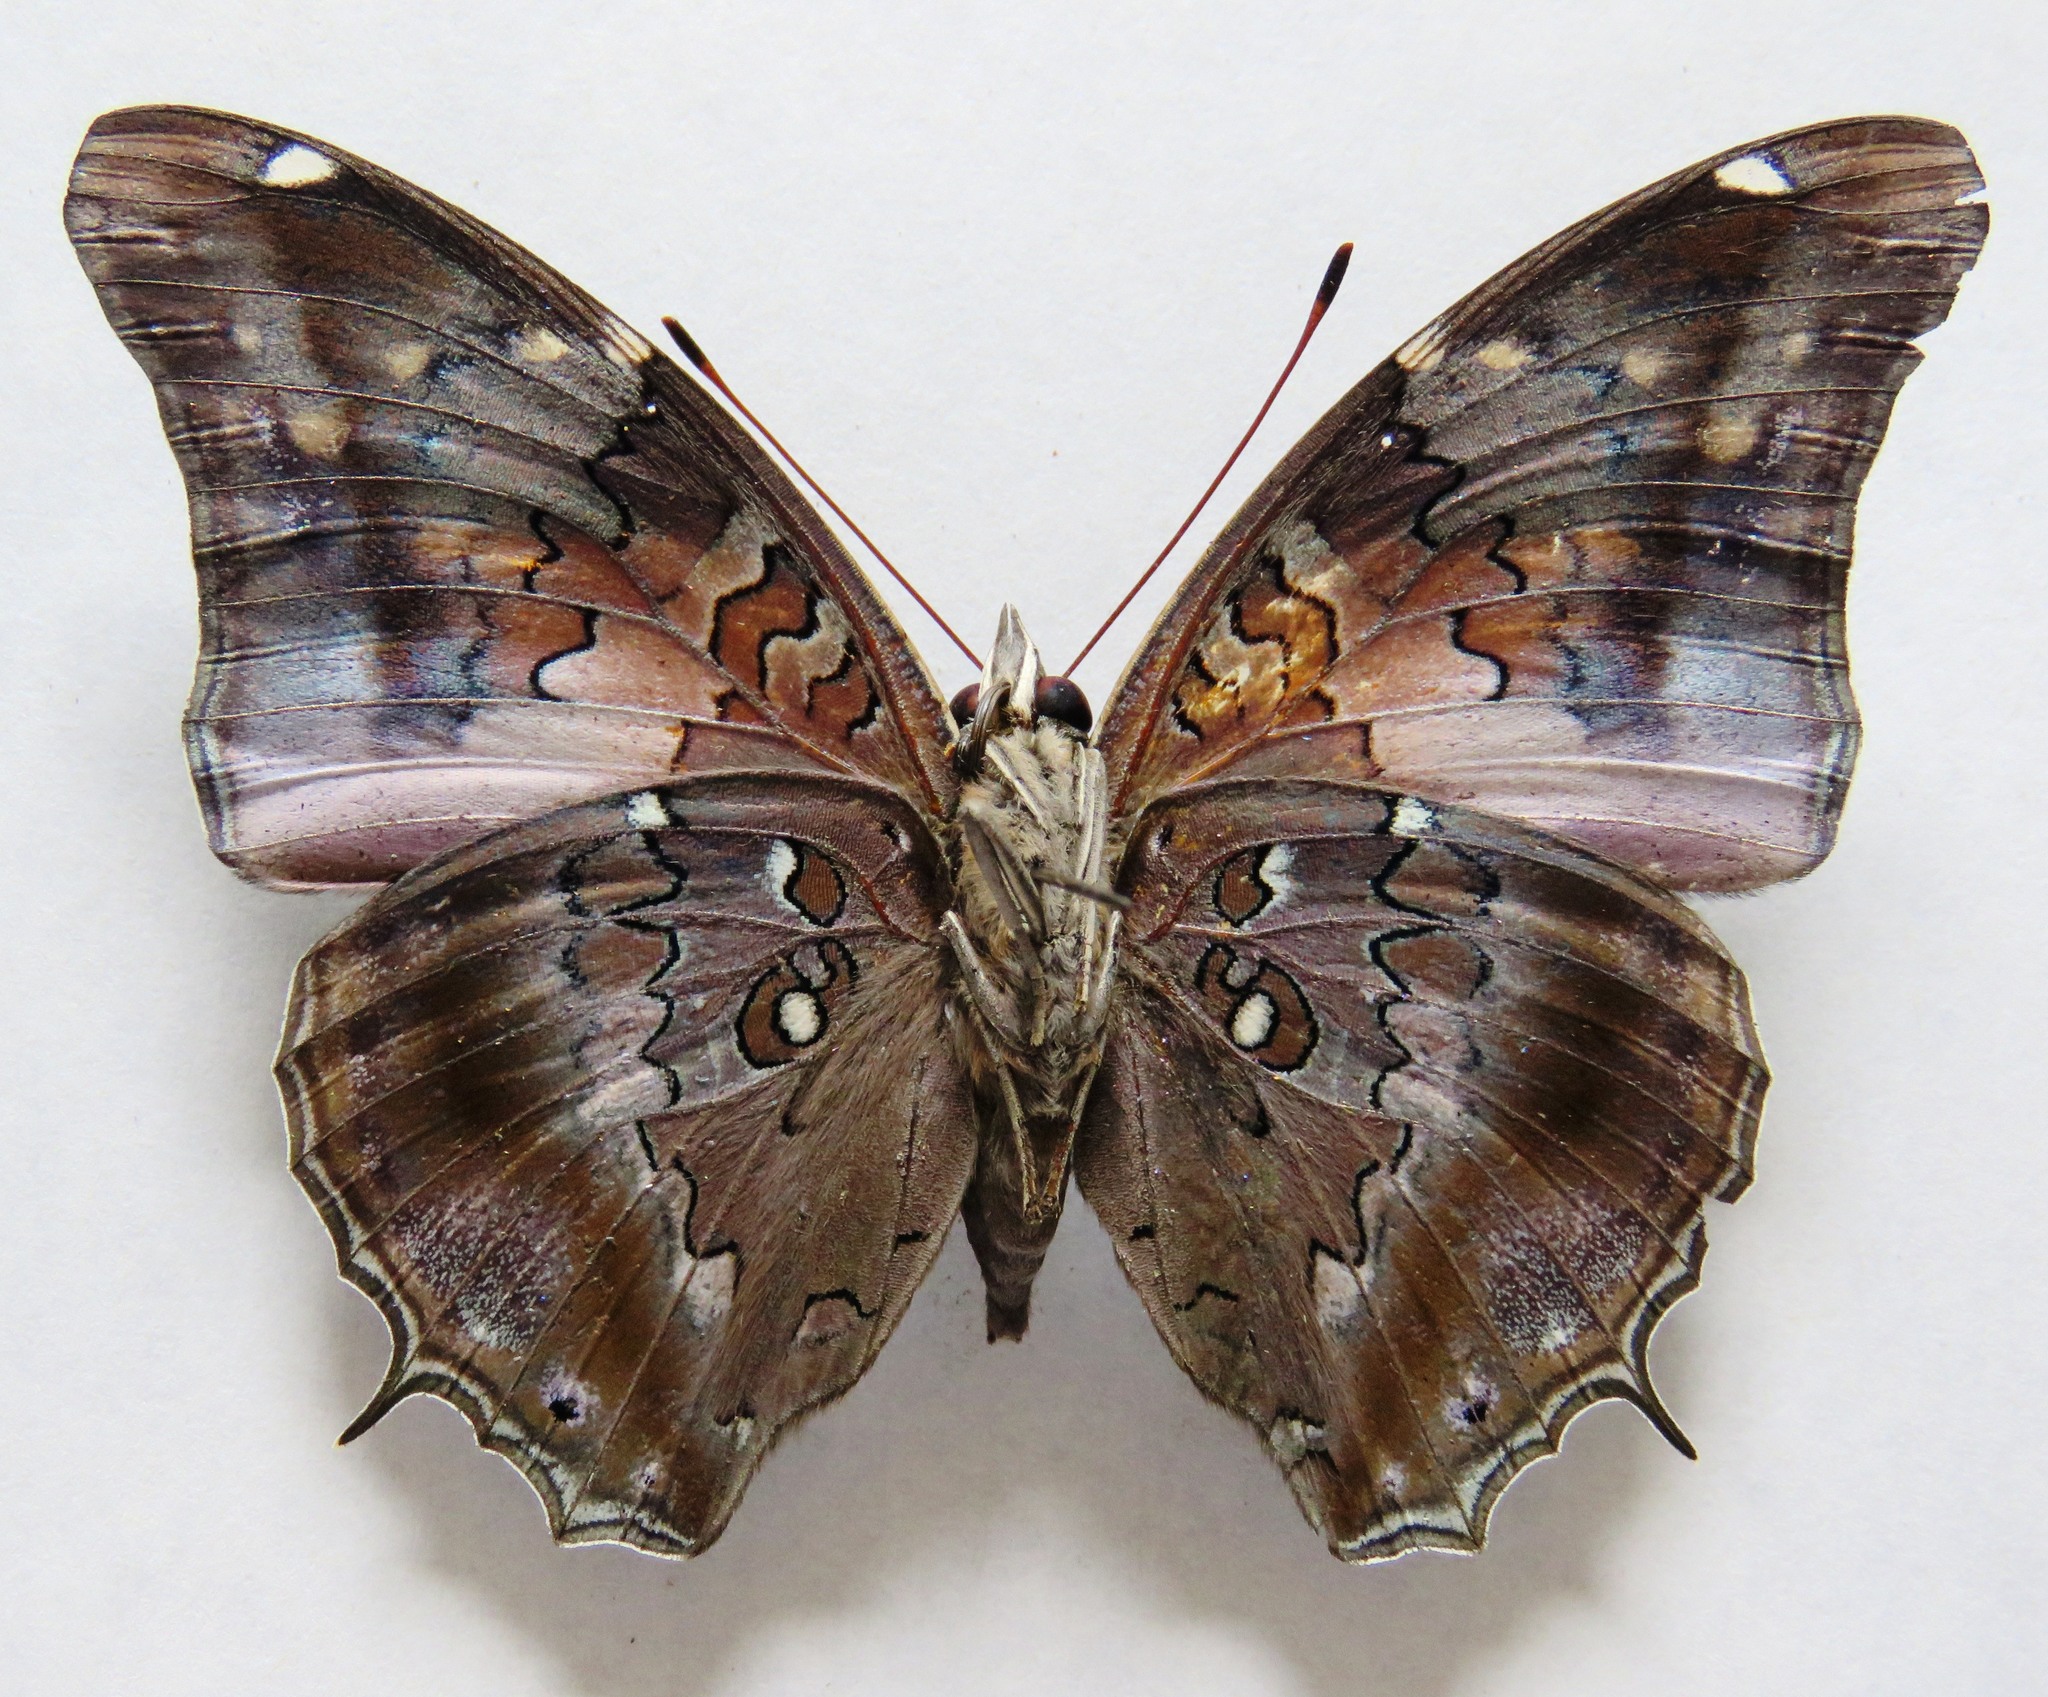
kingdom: Animalia
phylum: Arthropoda
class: Insecta
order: Lepidoptera
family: Nymphalidae
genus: Coea
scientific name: Coea acheronta
